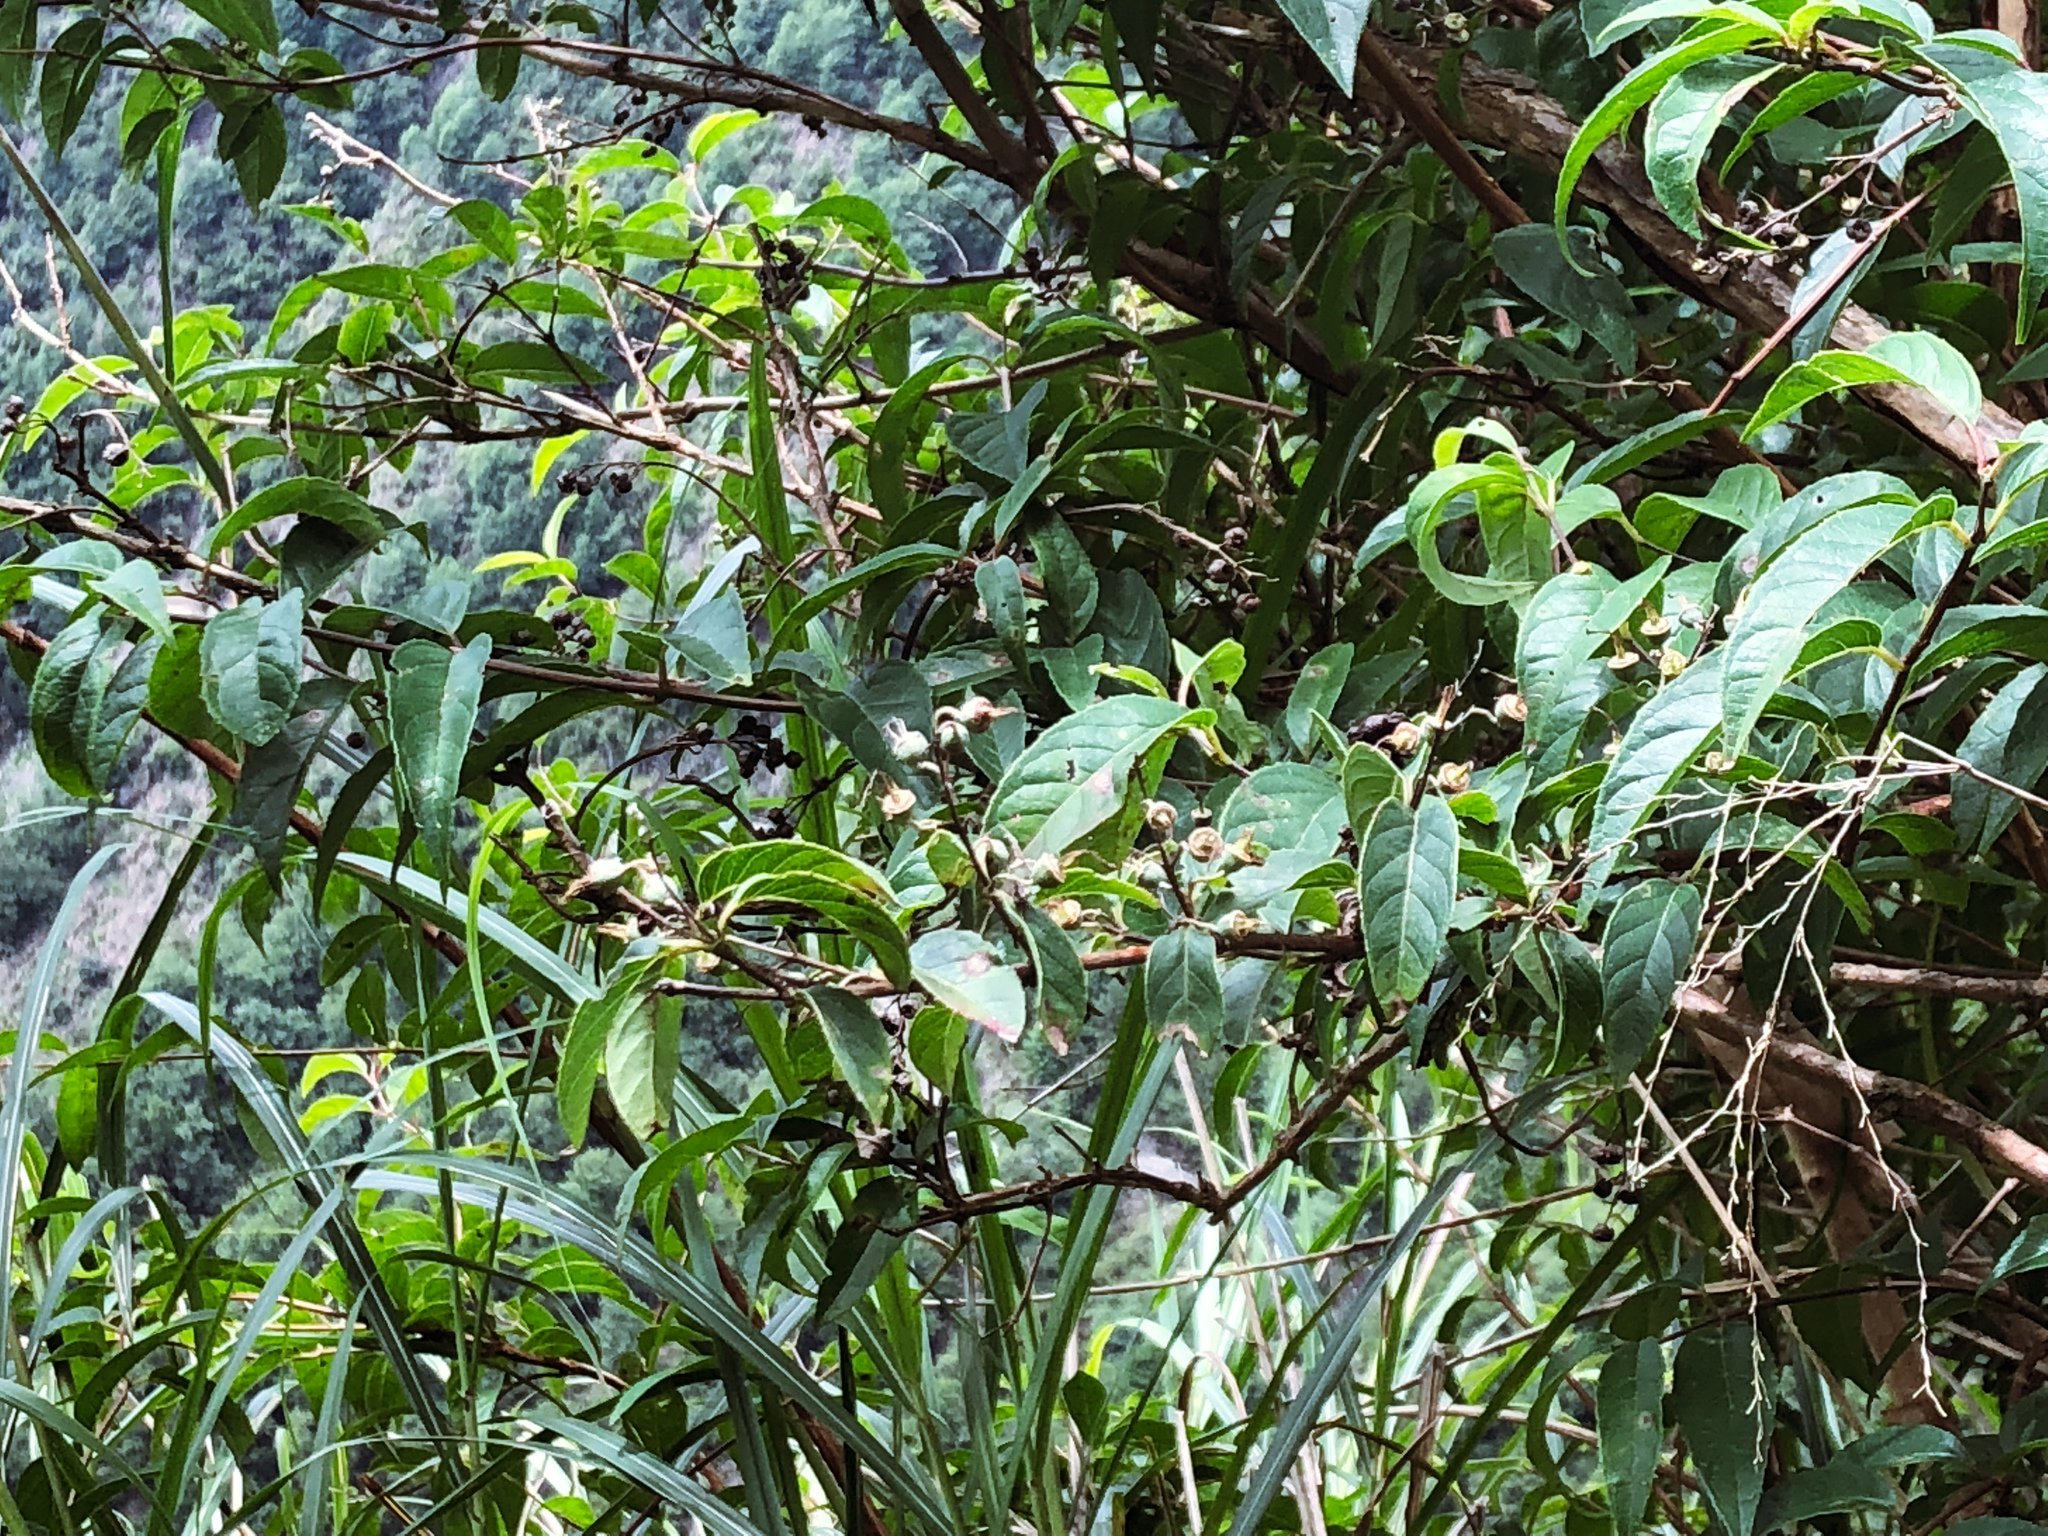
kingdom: Plantae
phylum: Tracheophyta
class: Magnoliopsida
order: Cornales
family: Hydrangeaceae
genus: Deutzia
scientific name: Deutzia pulchra
